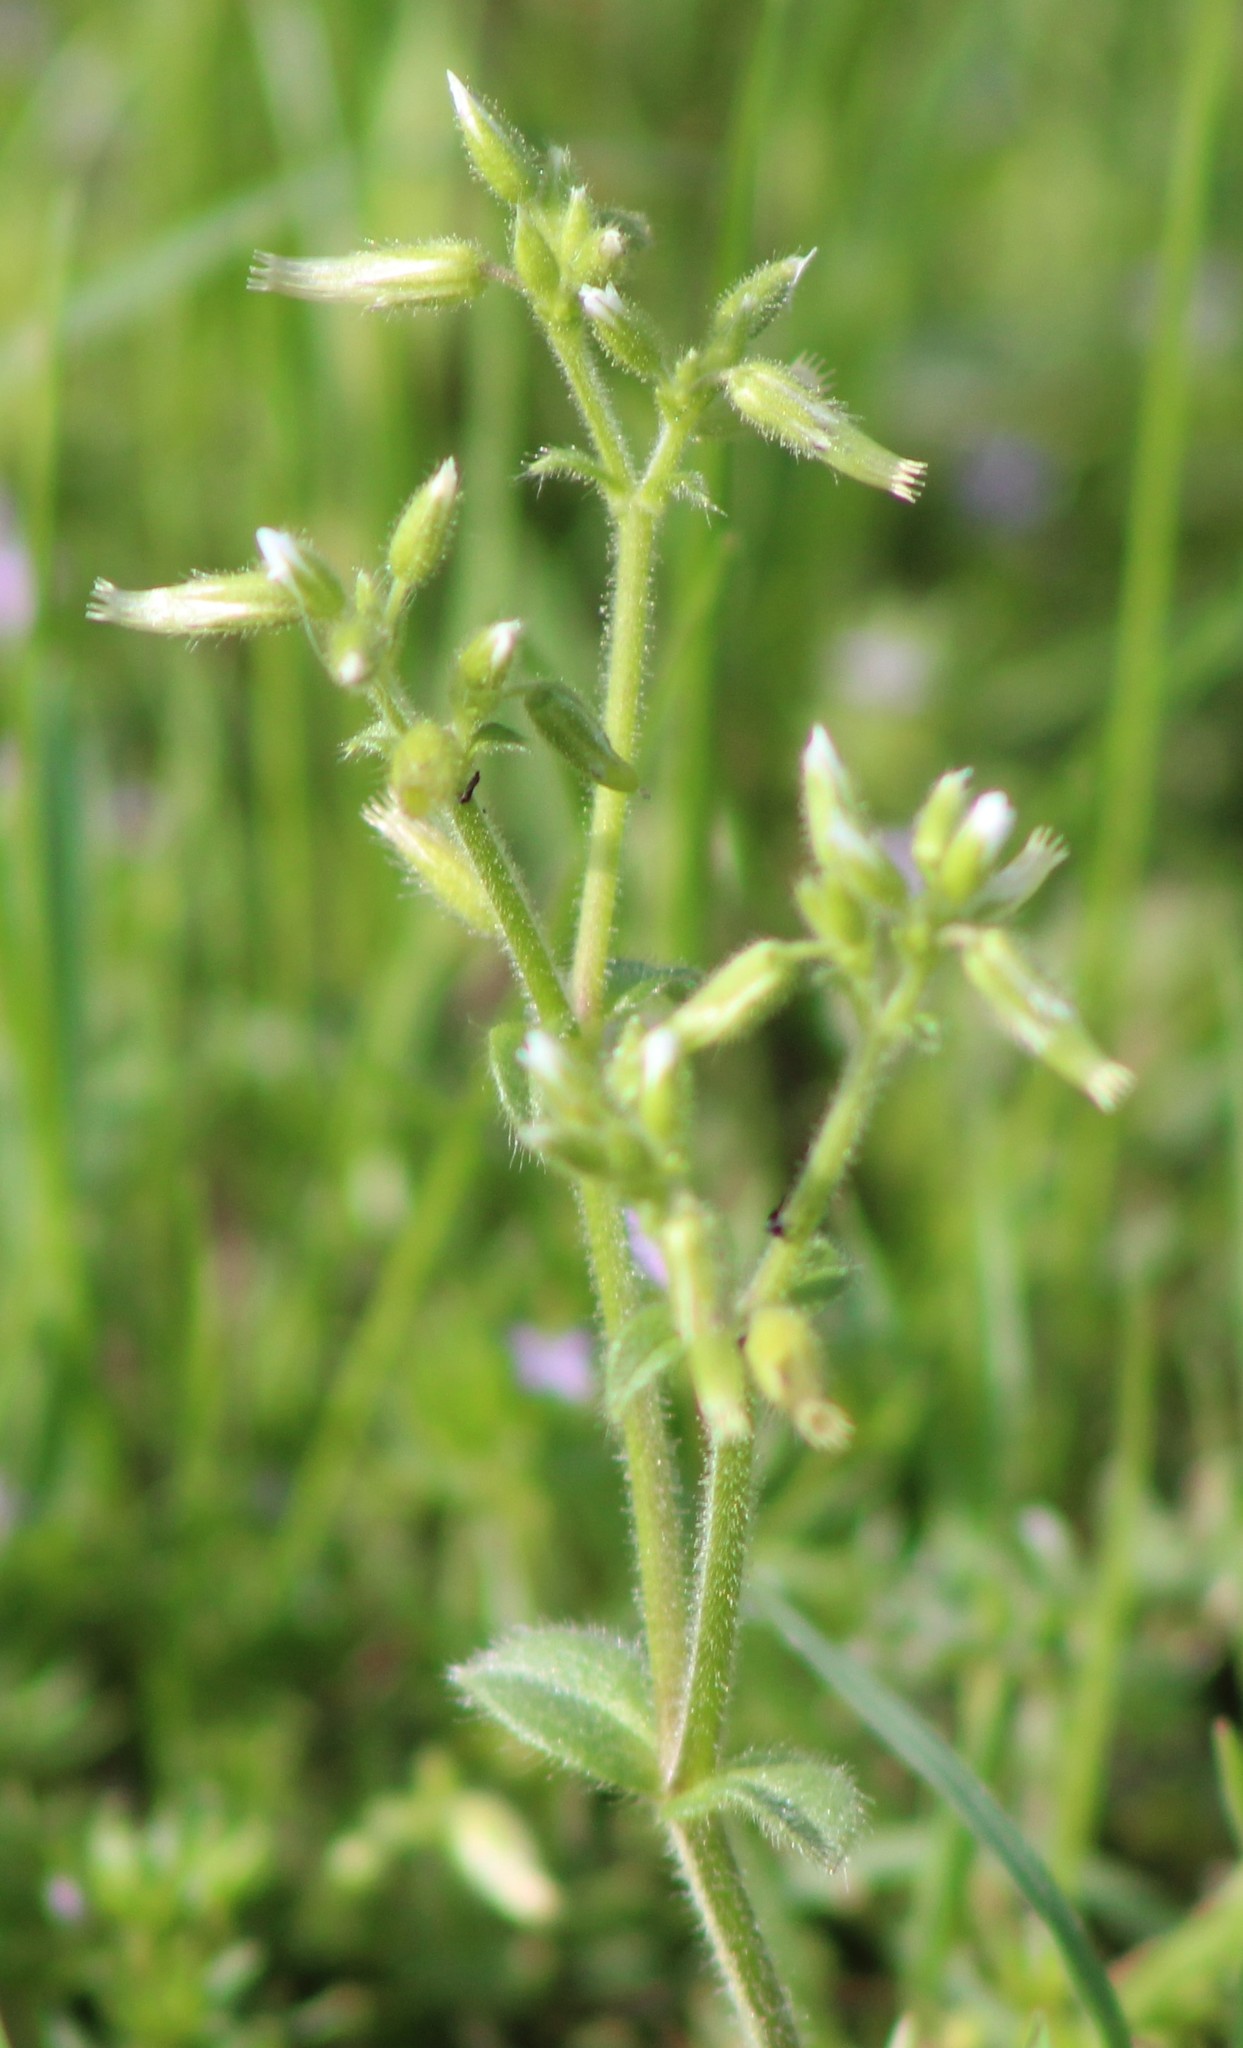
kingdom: Plantae
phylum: Tracheophyta
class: Magnoliopsida
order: Caryophyllales
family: Caryophyllaceae
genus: Cerastium
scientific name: Cerastium glomeratum
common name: Sticky chickweed
